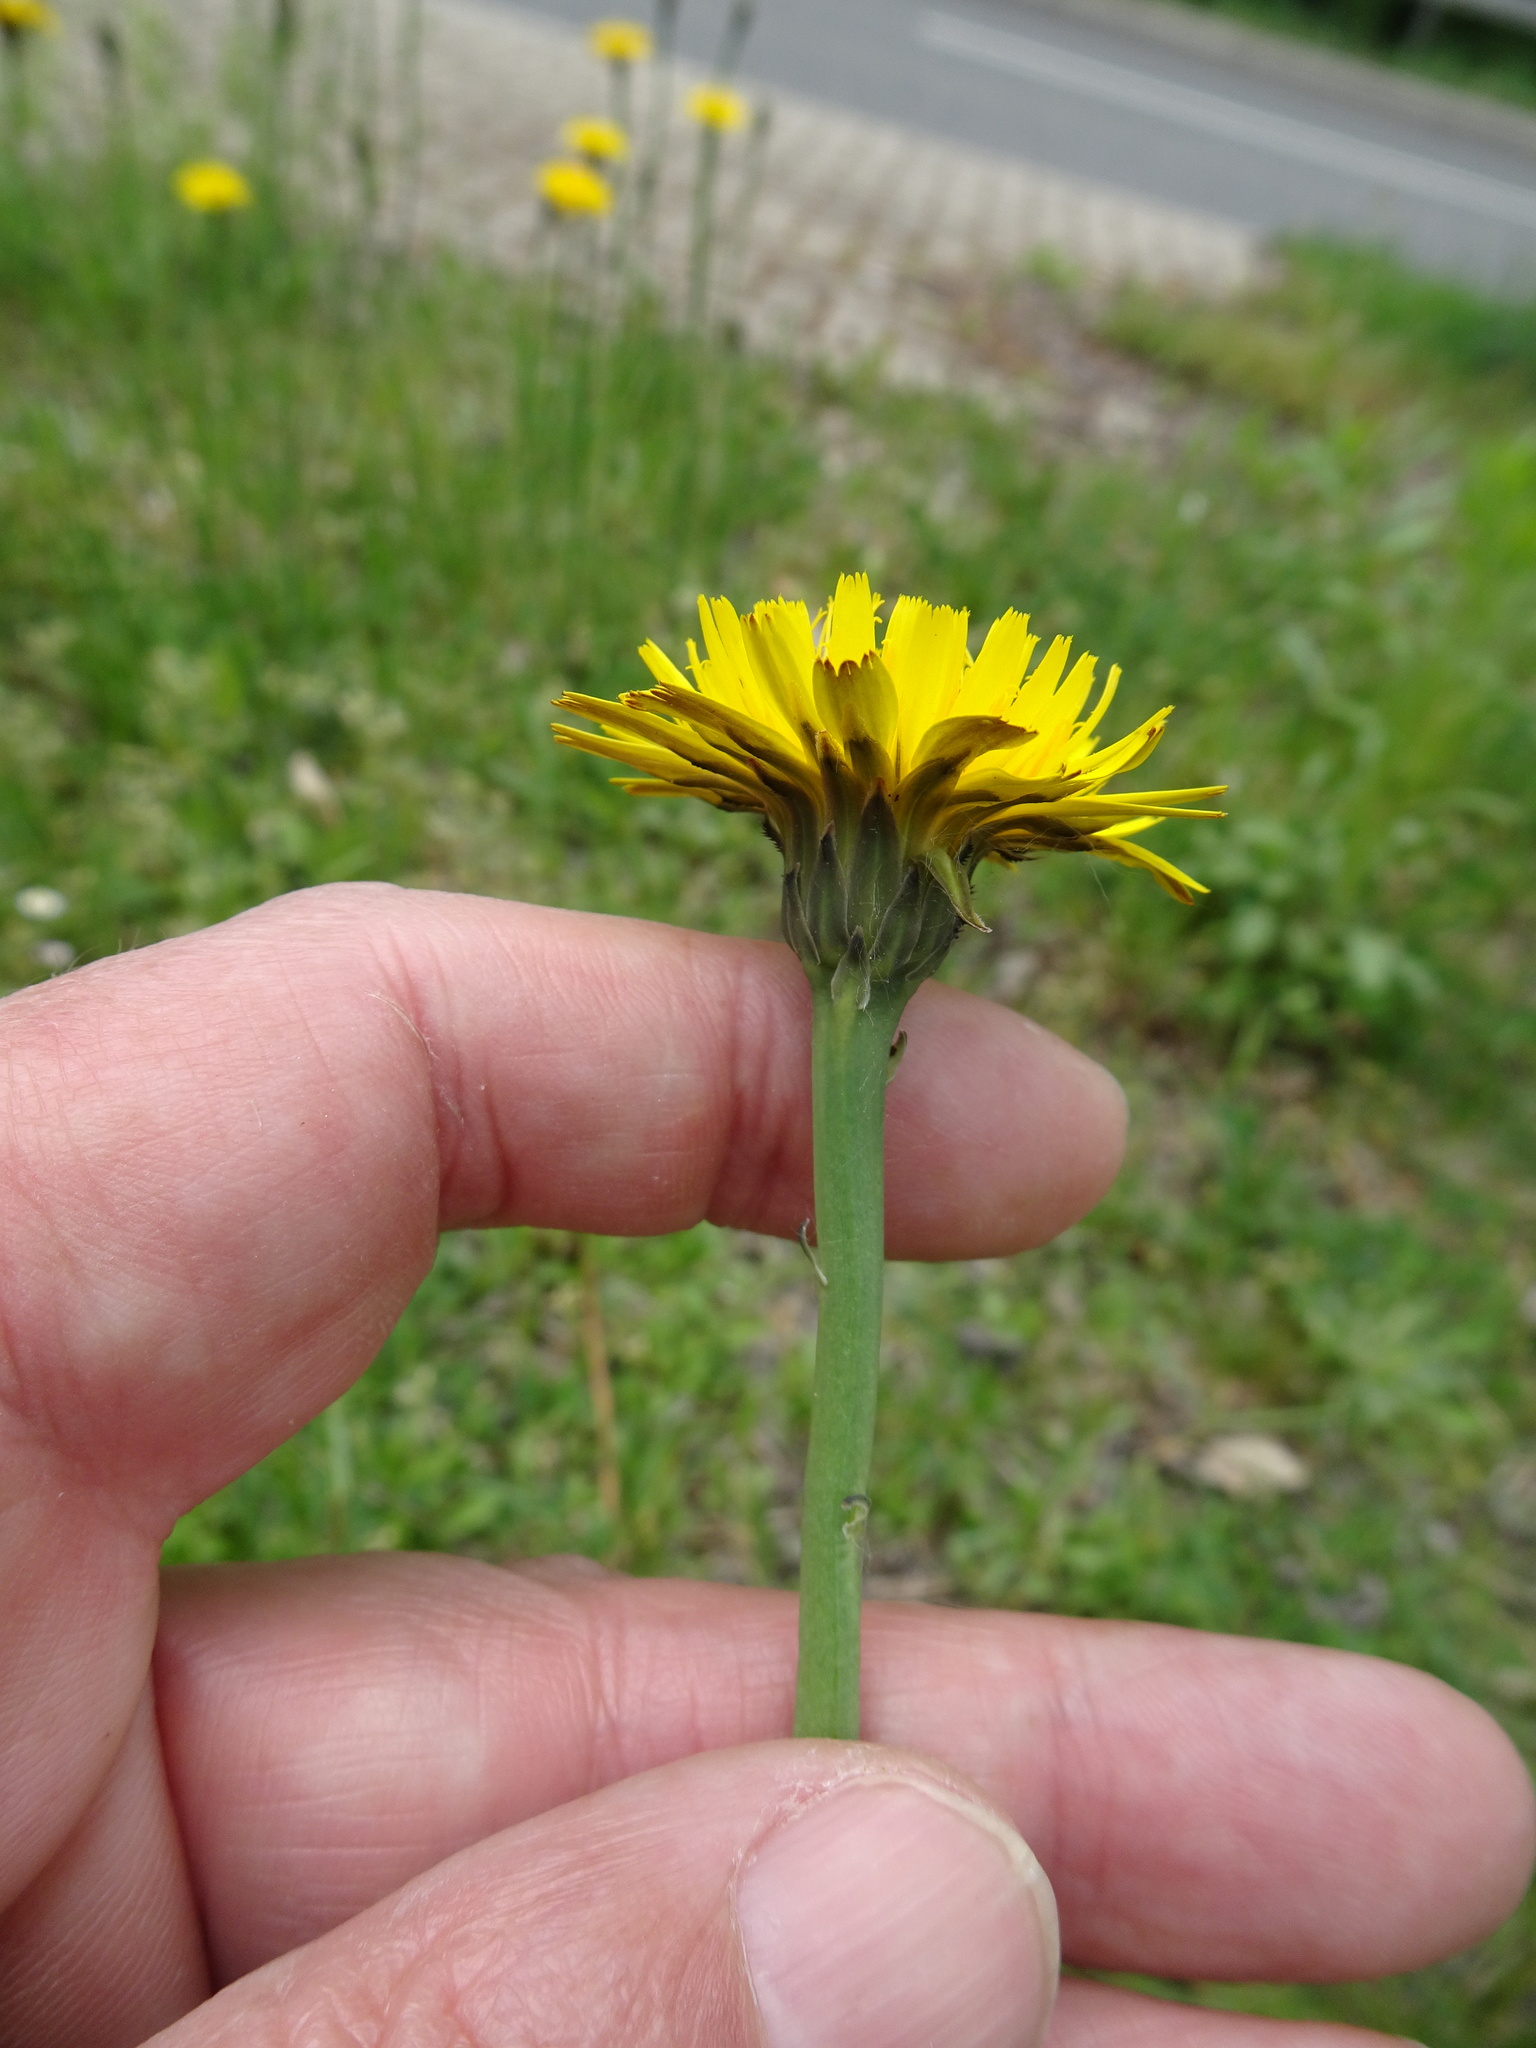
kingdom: Plantae
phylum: Tracheophyta
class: Magnoliopsida
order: Asterales
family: Asteraceae
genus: Hypochaeris
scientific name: Hypochaeris radicata
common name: Flatweed
